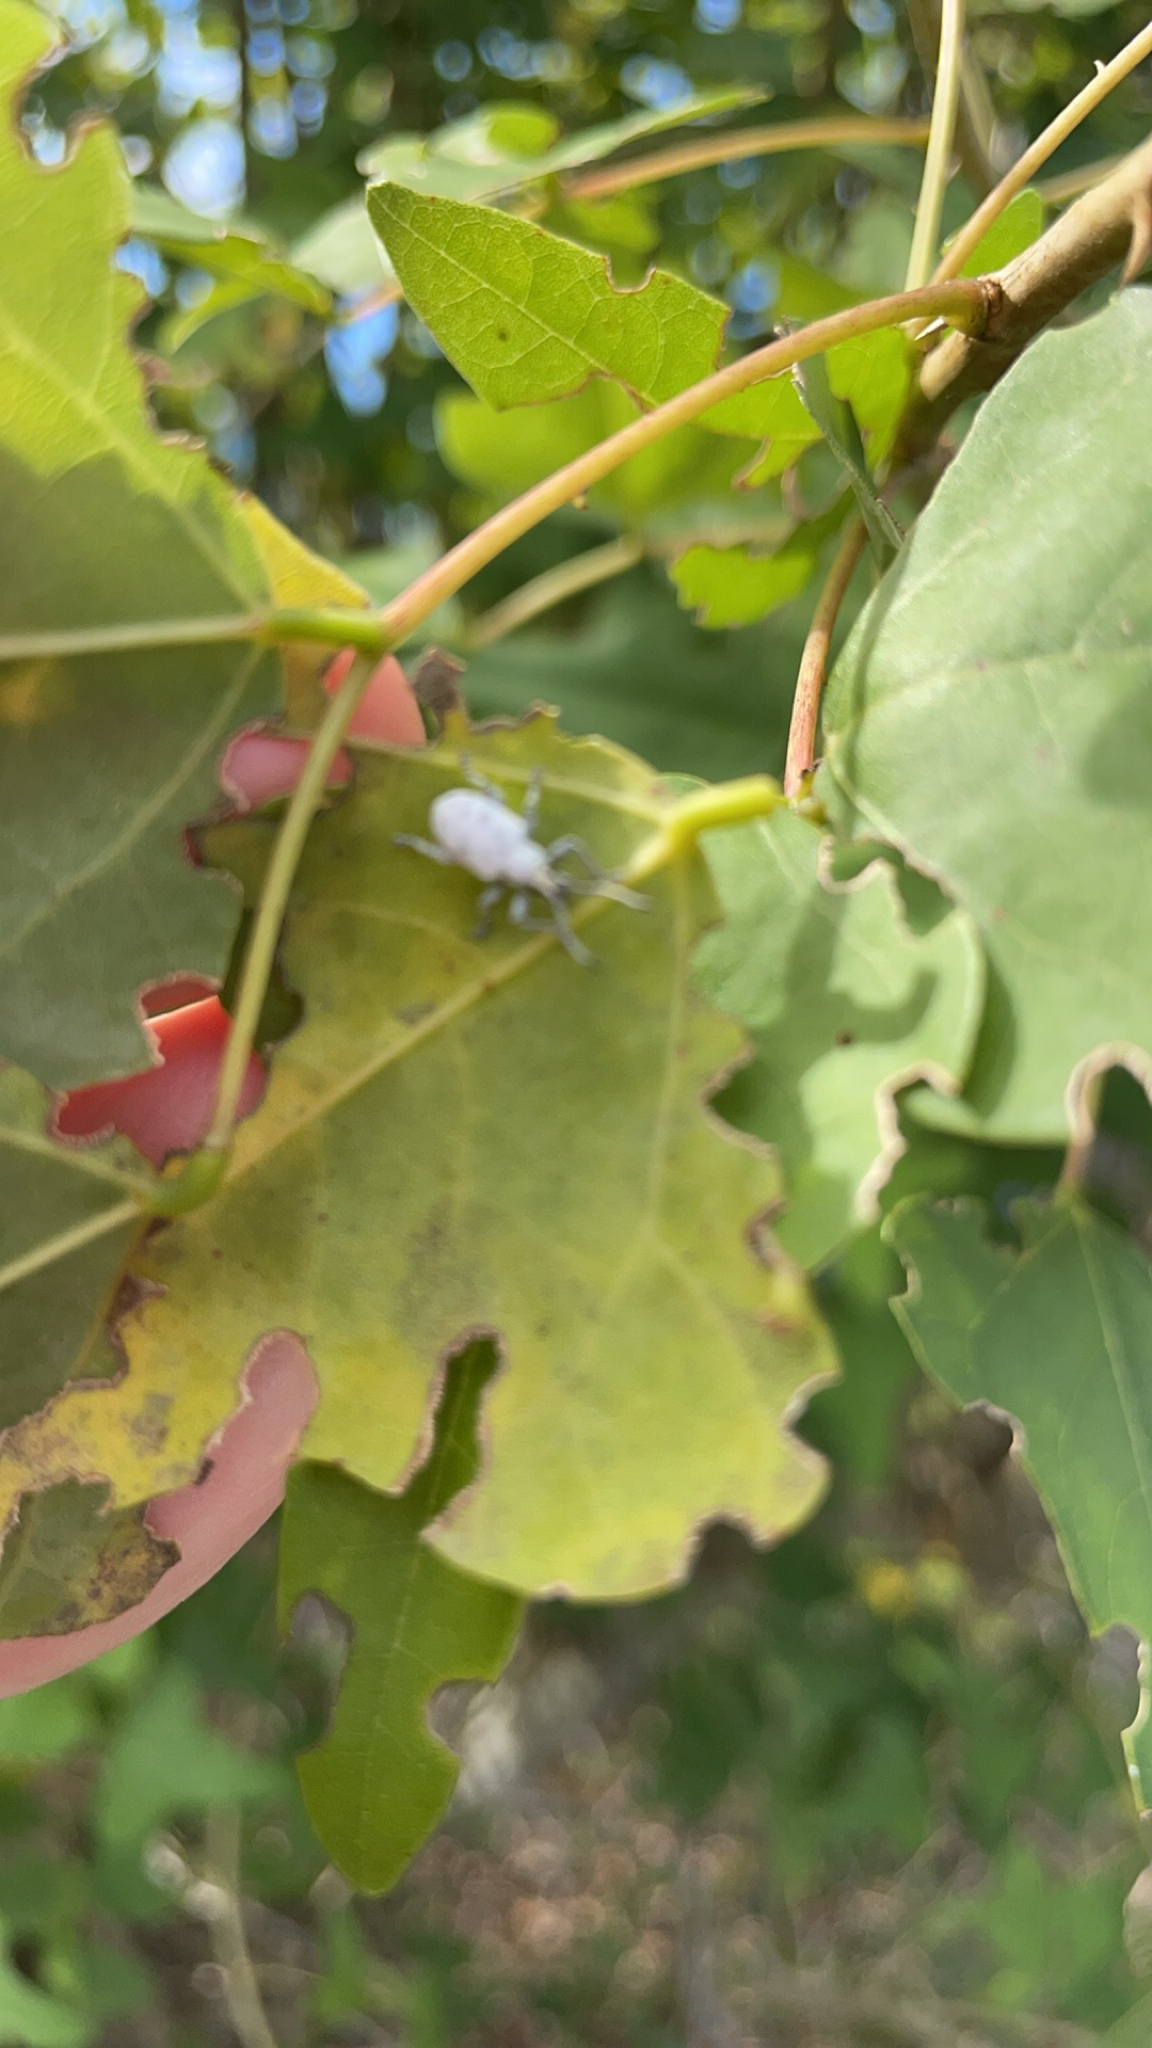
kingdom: Animalia
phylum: Arthropoda
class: Insecta
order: Coleoptera
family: Curculionidae
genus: Myllocerus
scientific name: Myllocerus undecimpustulatus
